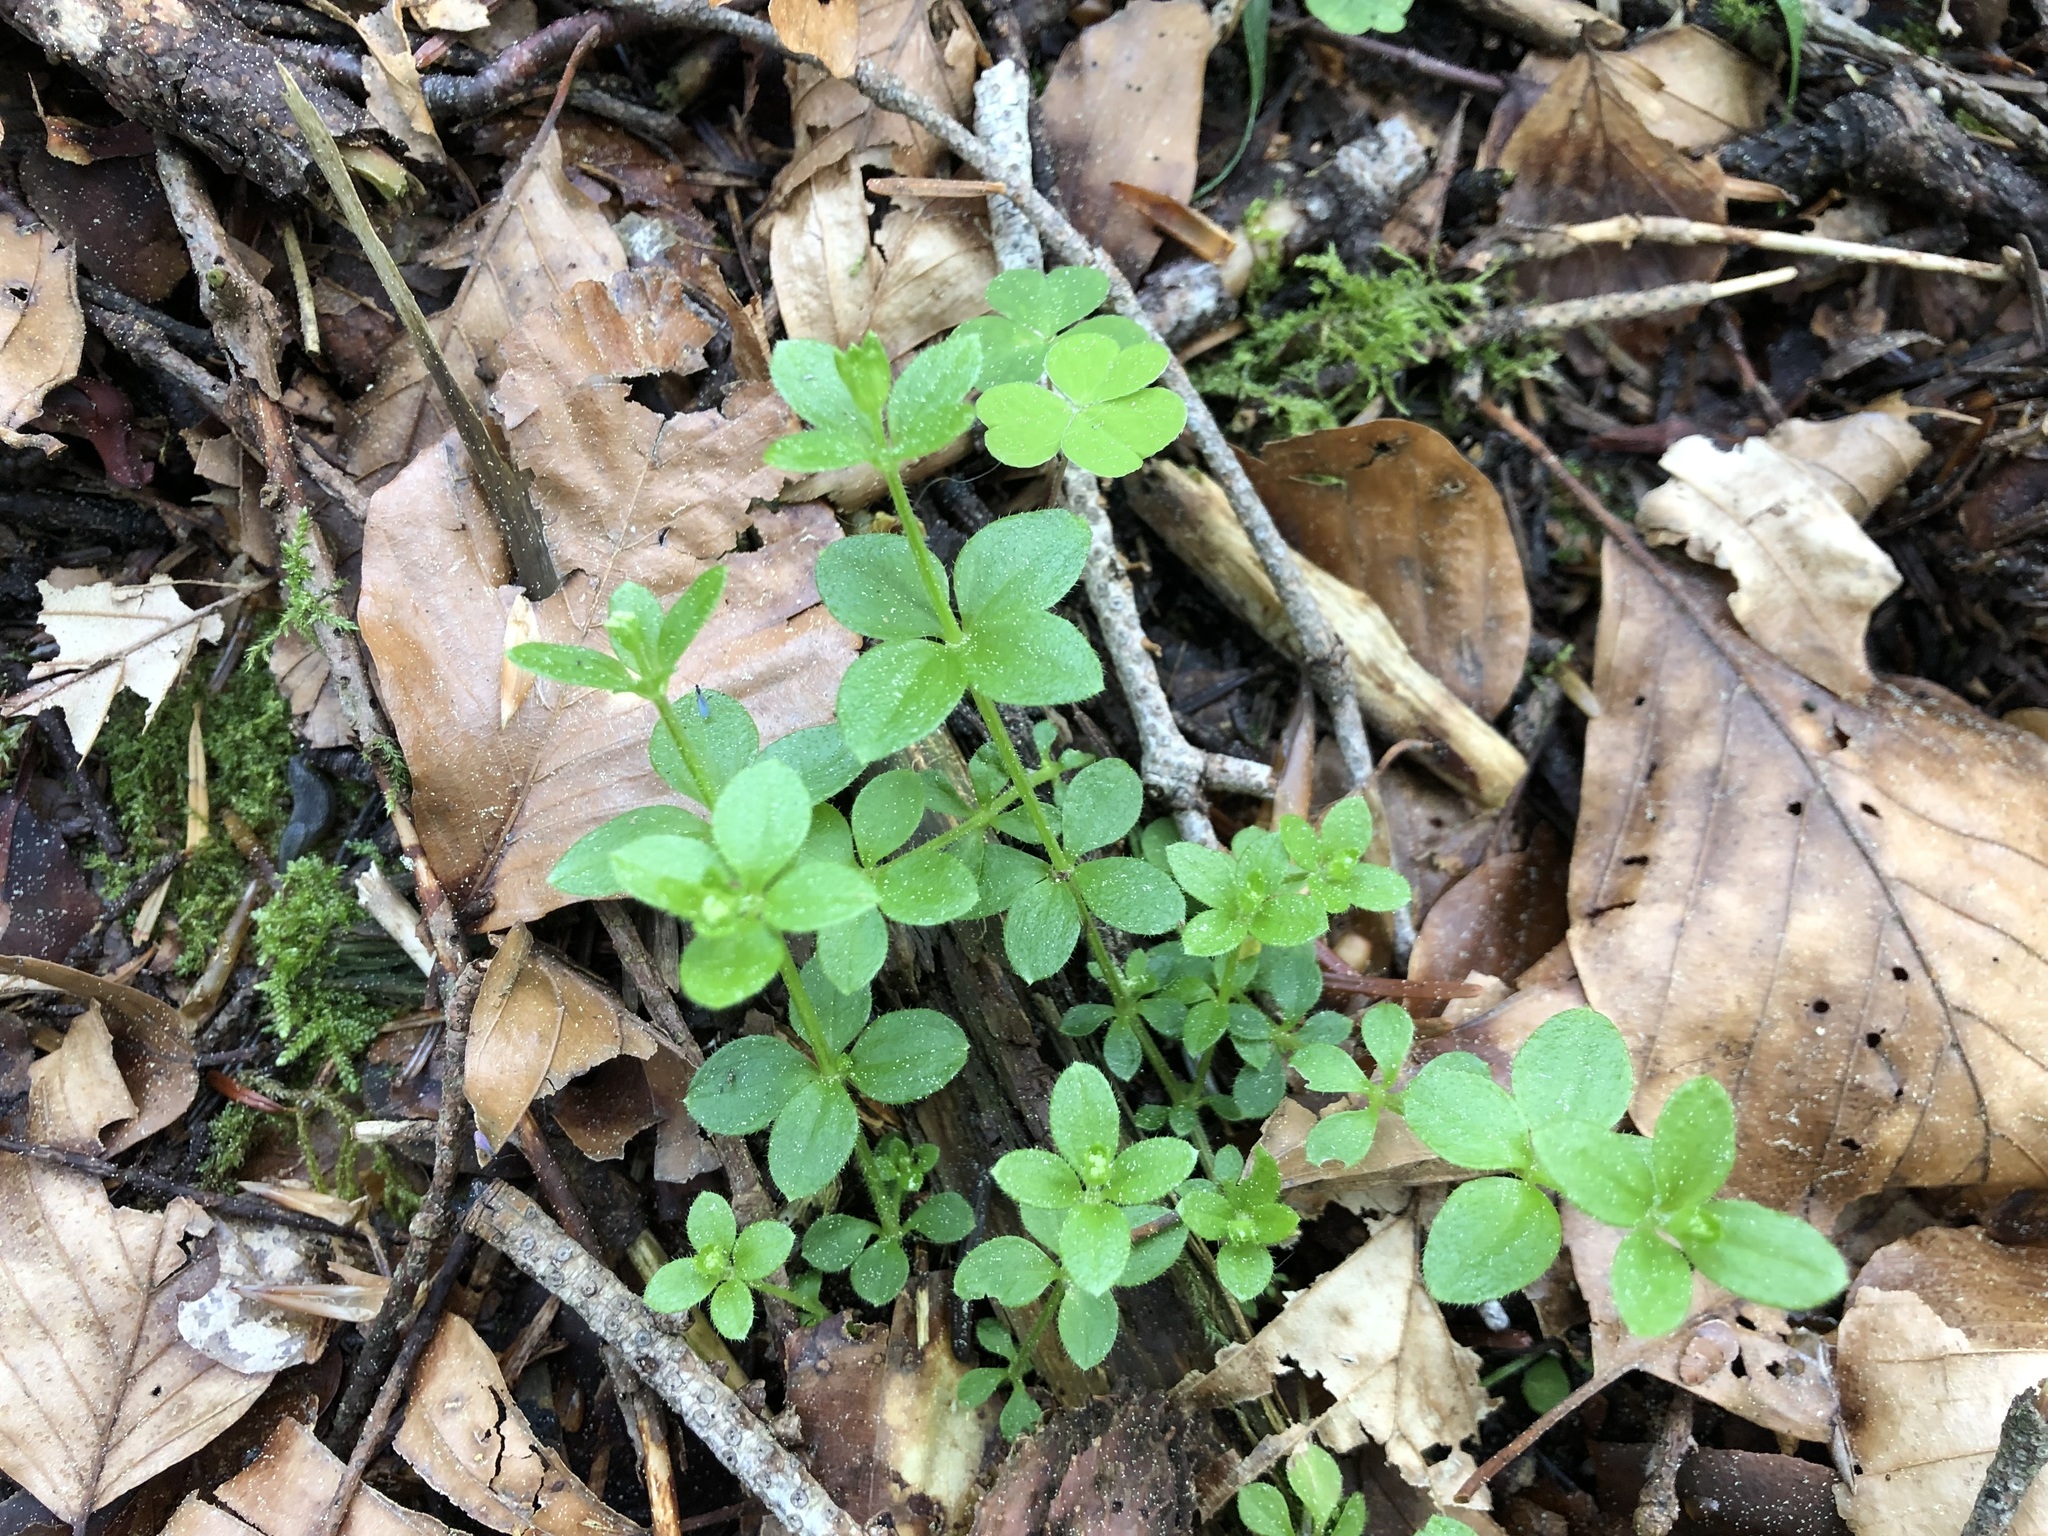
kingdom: Plantae
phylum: Tracheophyta
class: Magnoliopsida
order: Gentianales
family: Rubiaceae
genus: Galium
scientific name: Galium rotundifolium
